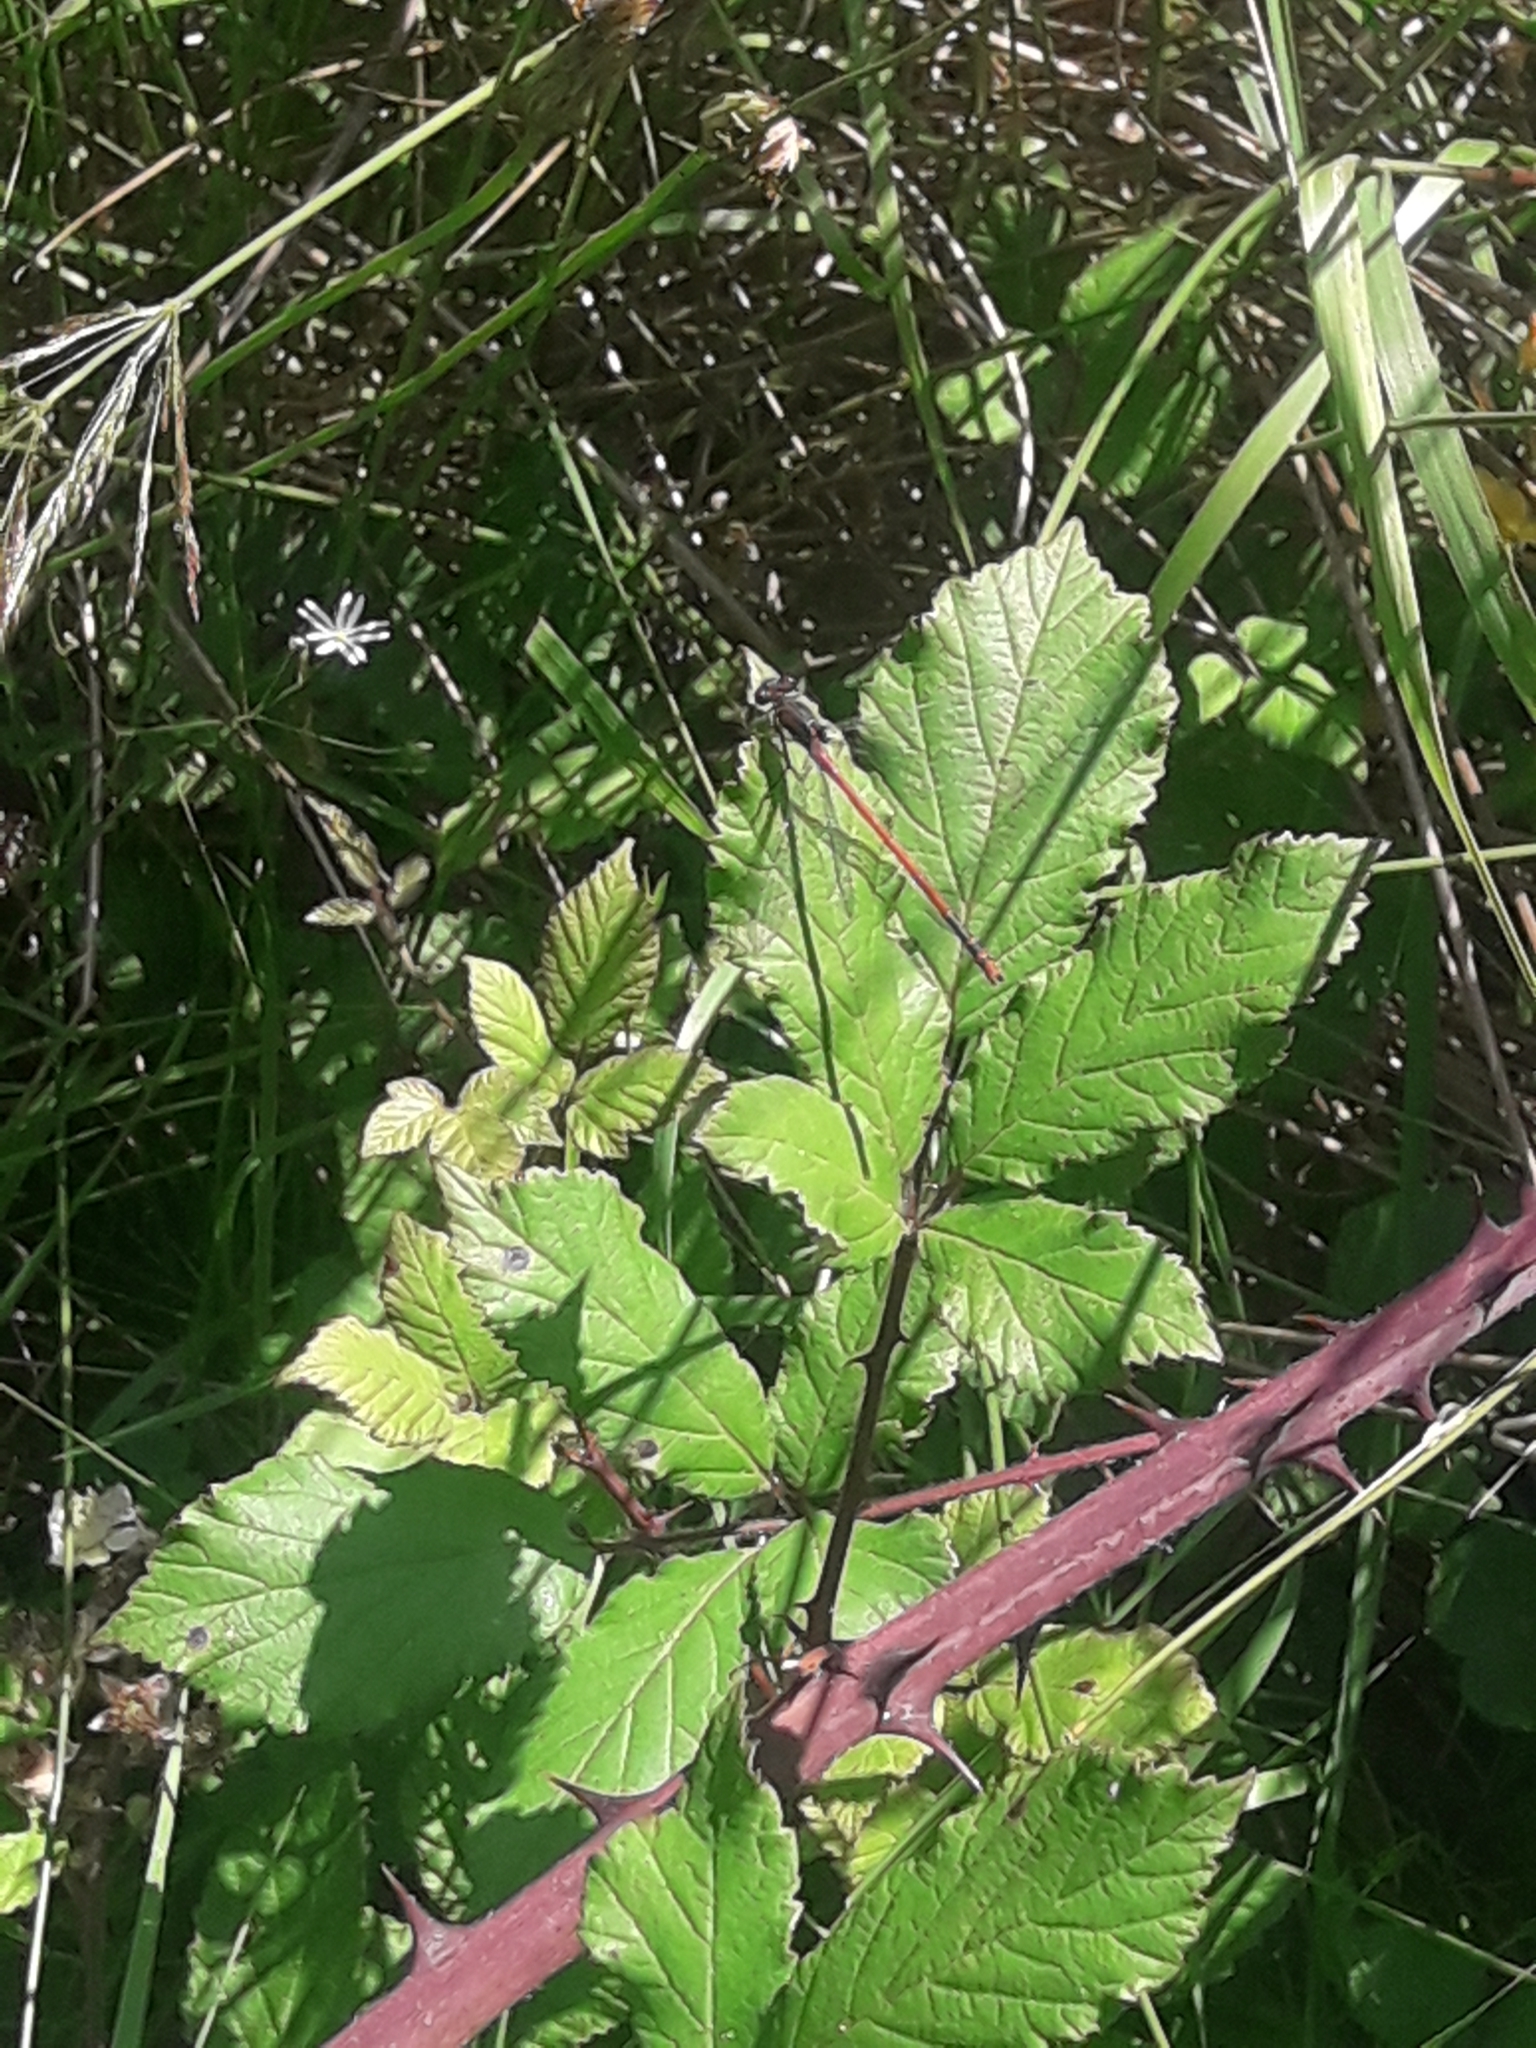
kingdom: Animalia
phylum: Arthropoda
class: Insecta
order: Odonata
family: Coenagrionidae
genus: Pyrrhosoma
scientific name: Pyrrhosoma nymphula
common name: Large red damsel
